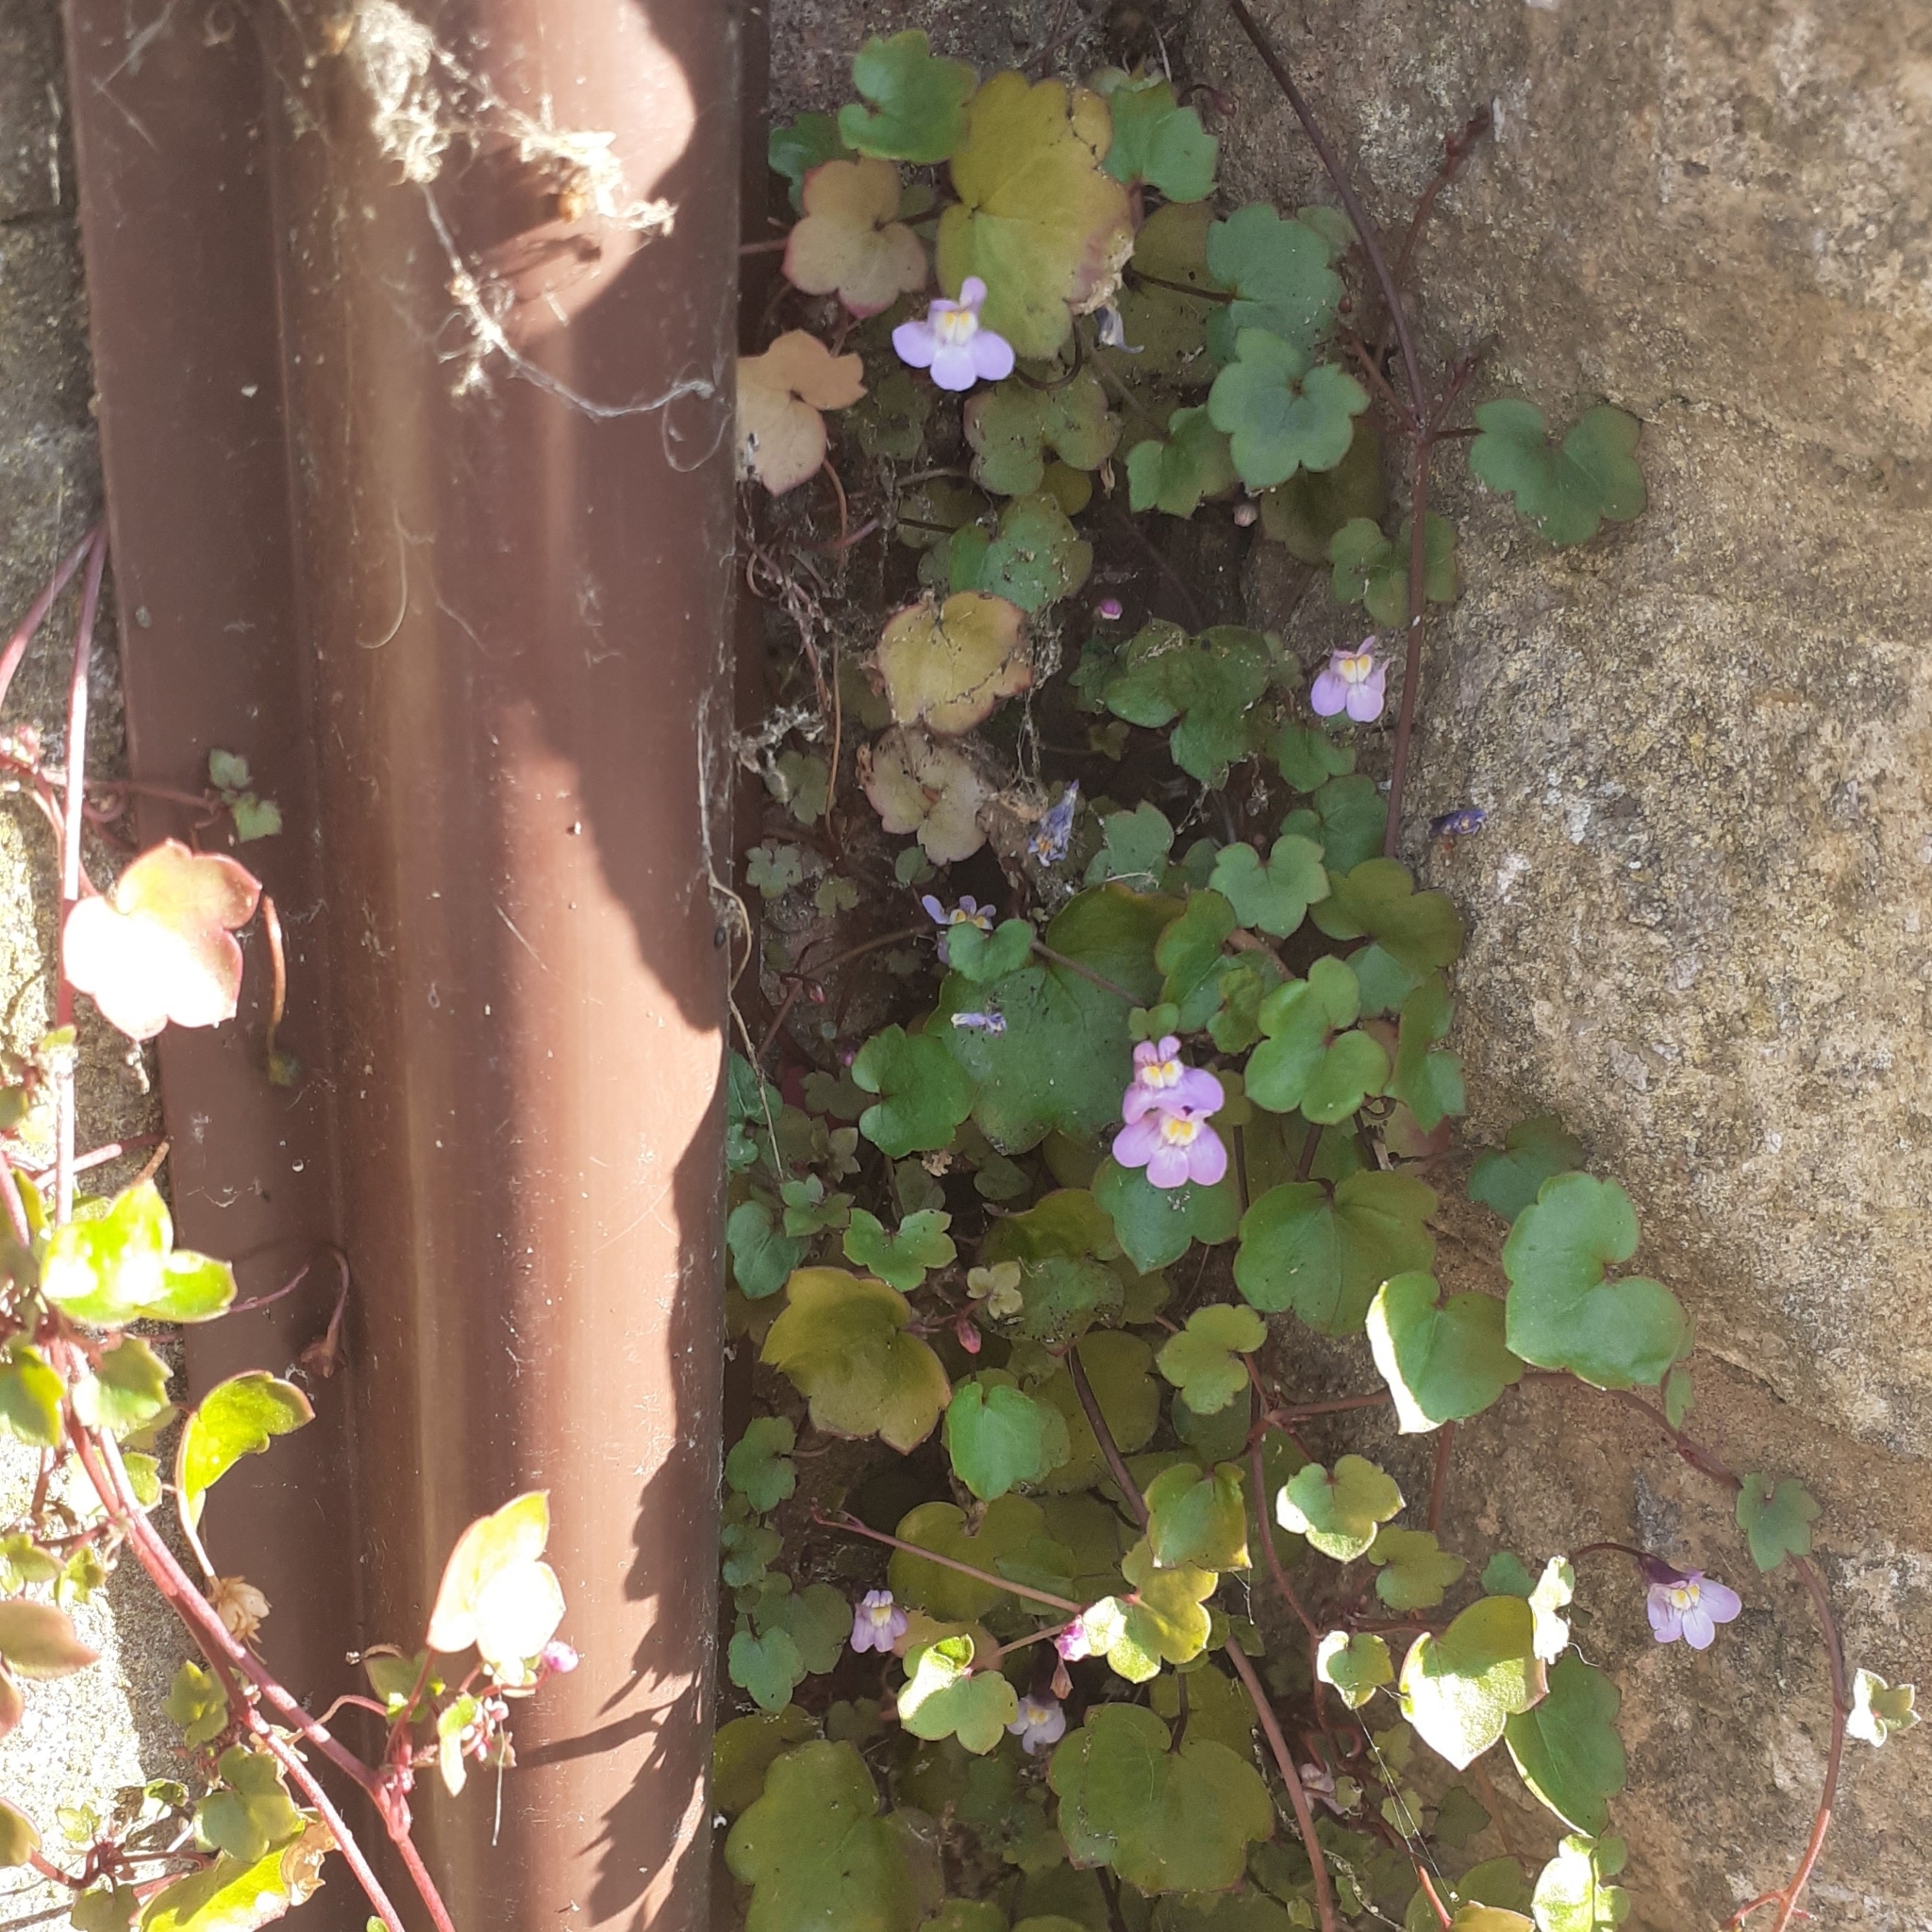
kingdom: Plantae
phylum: Tracheophyta
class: Magnoliopsida
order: Lamiales
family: Plantaginaceae
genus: Cymbalaria
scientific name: Cymbalaria muralis
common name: Ivy-leaved toadflax
